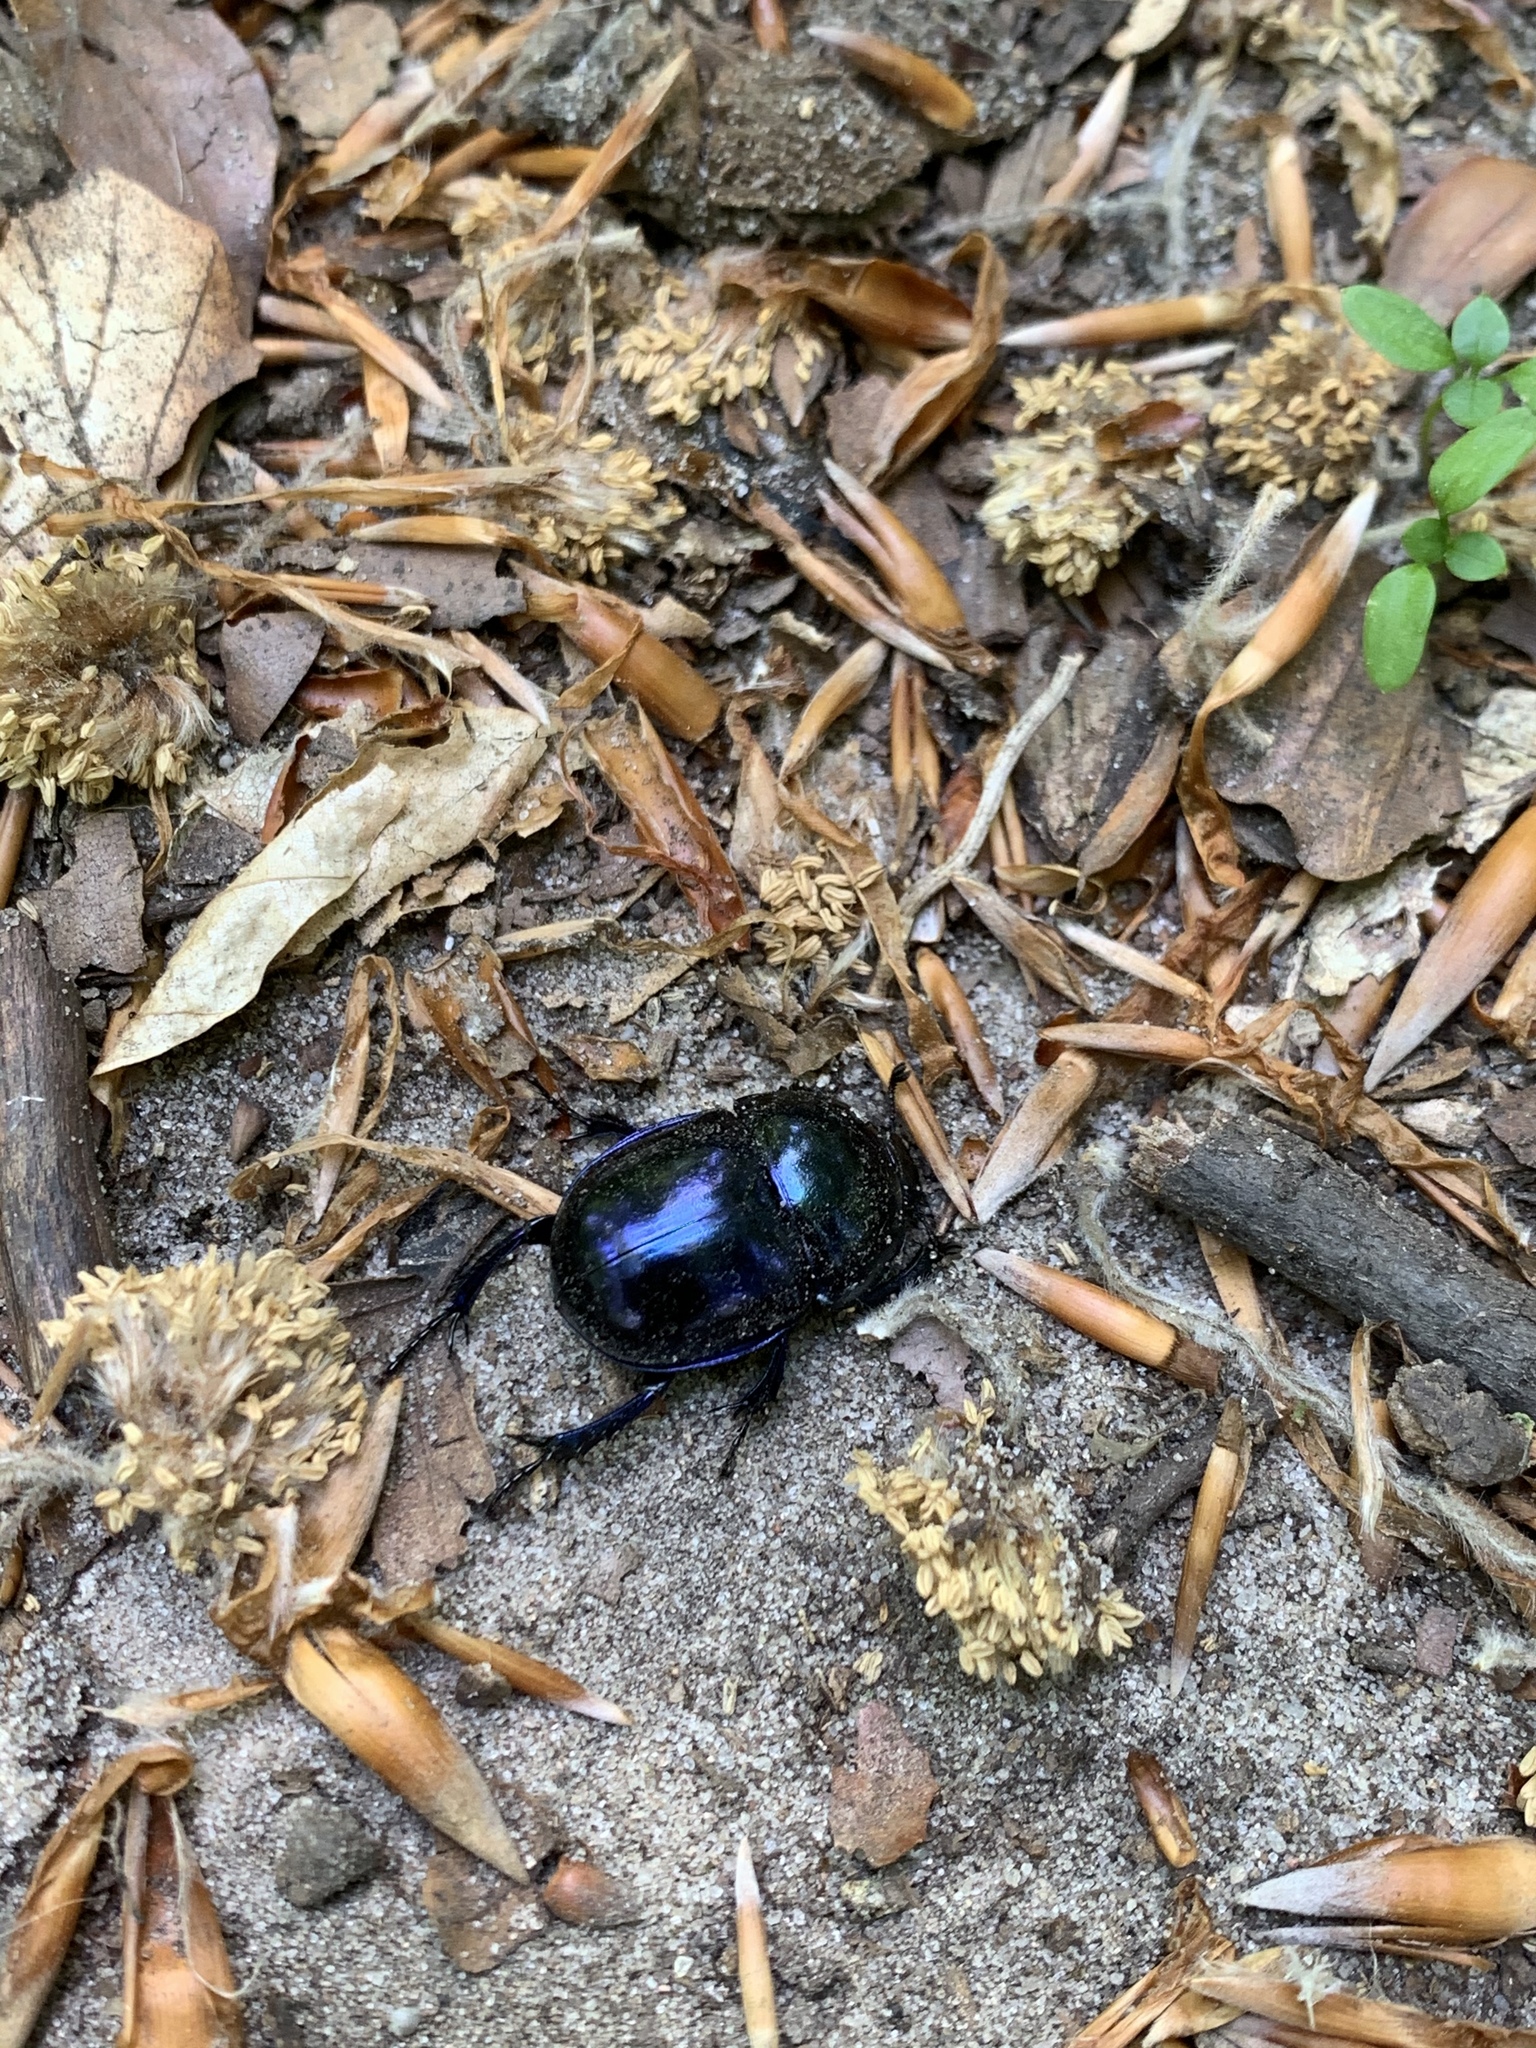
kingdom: Animalia
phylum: Arthropoda
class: Insecta
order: Coleoptera
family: Geotrupidae
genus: Anoplotrupes
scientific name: Anoplotrupes stercorosus
